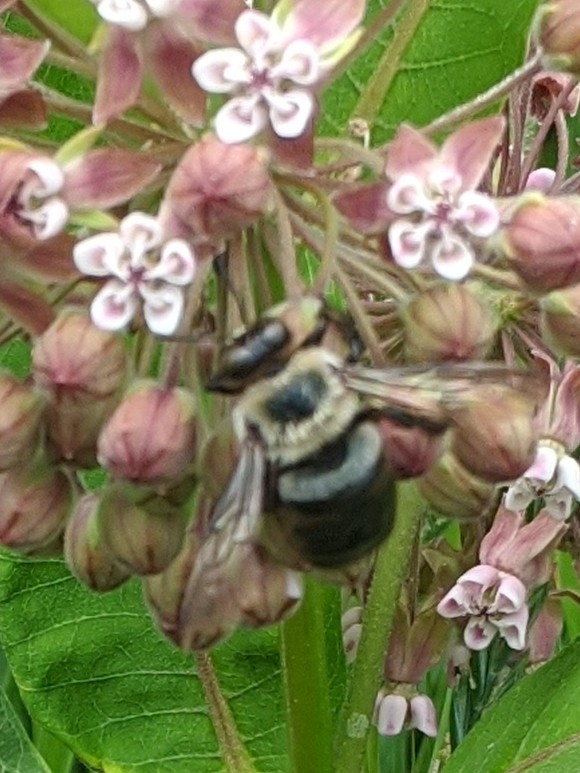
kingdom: Animalia
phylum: Arthropoda
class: Insecta
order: Hymenoptera
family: Apidae
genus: Xylocopa
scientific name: Xylocopa virginica
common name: Carpenter bee
